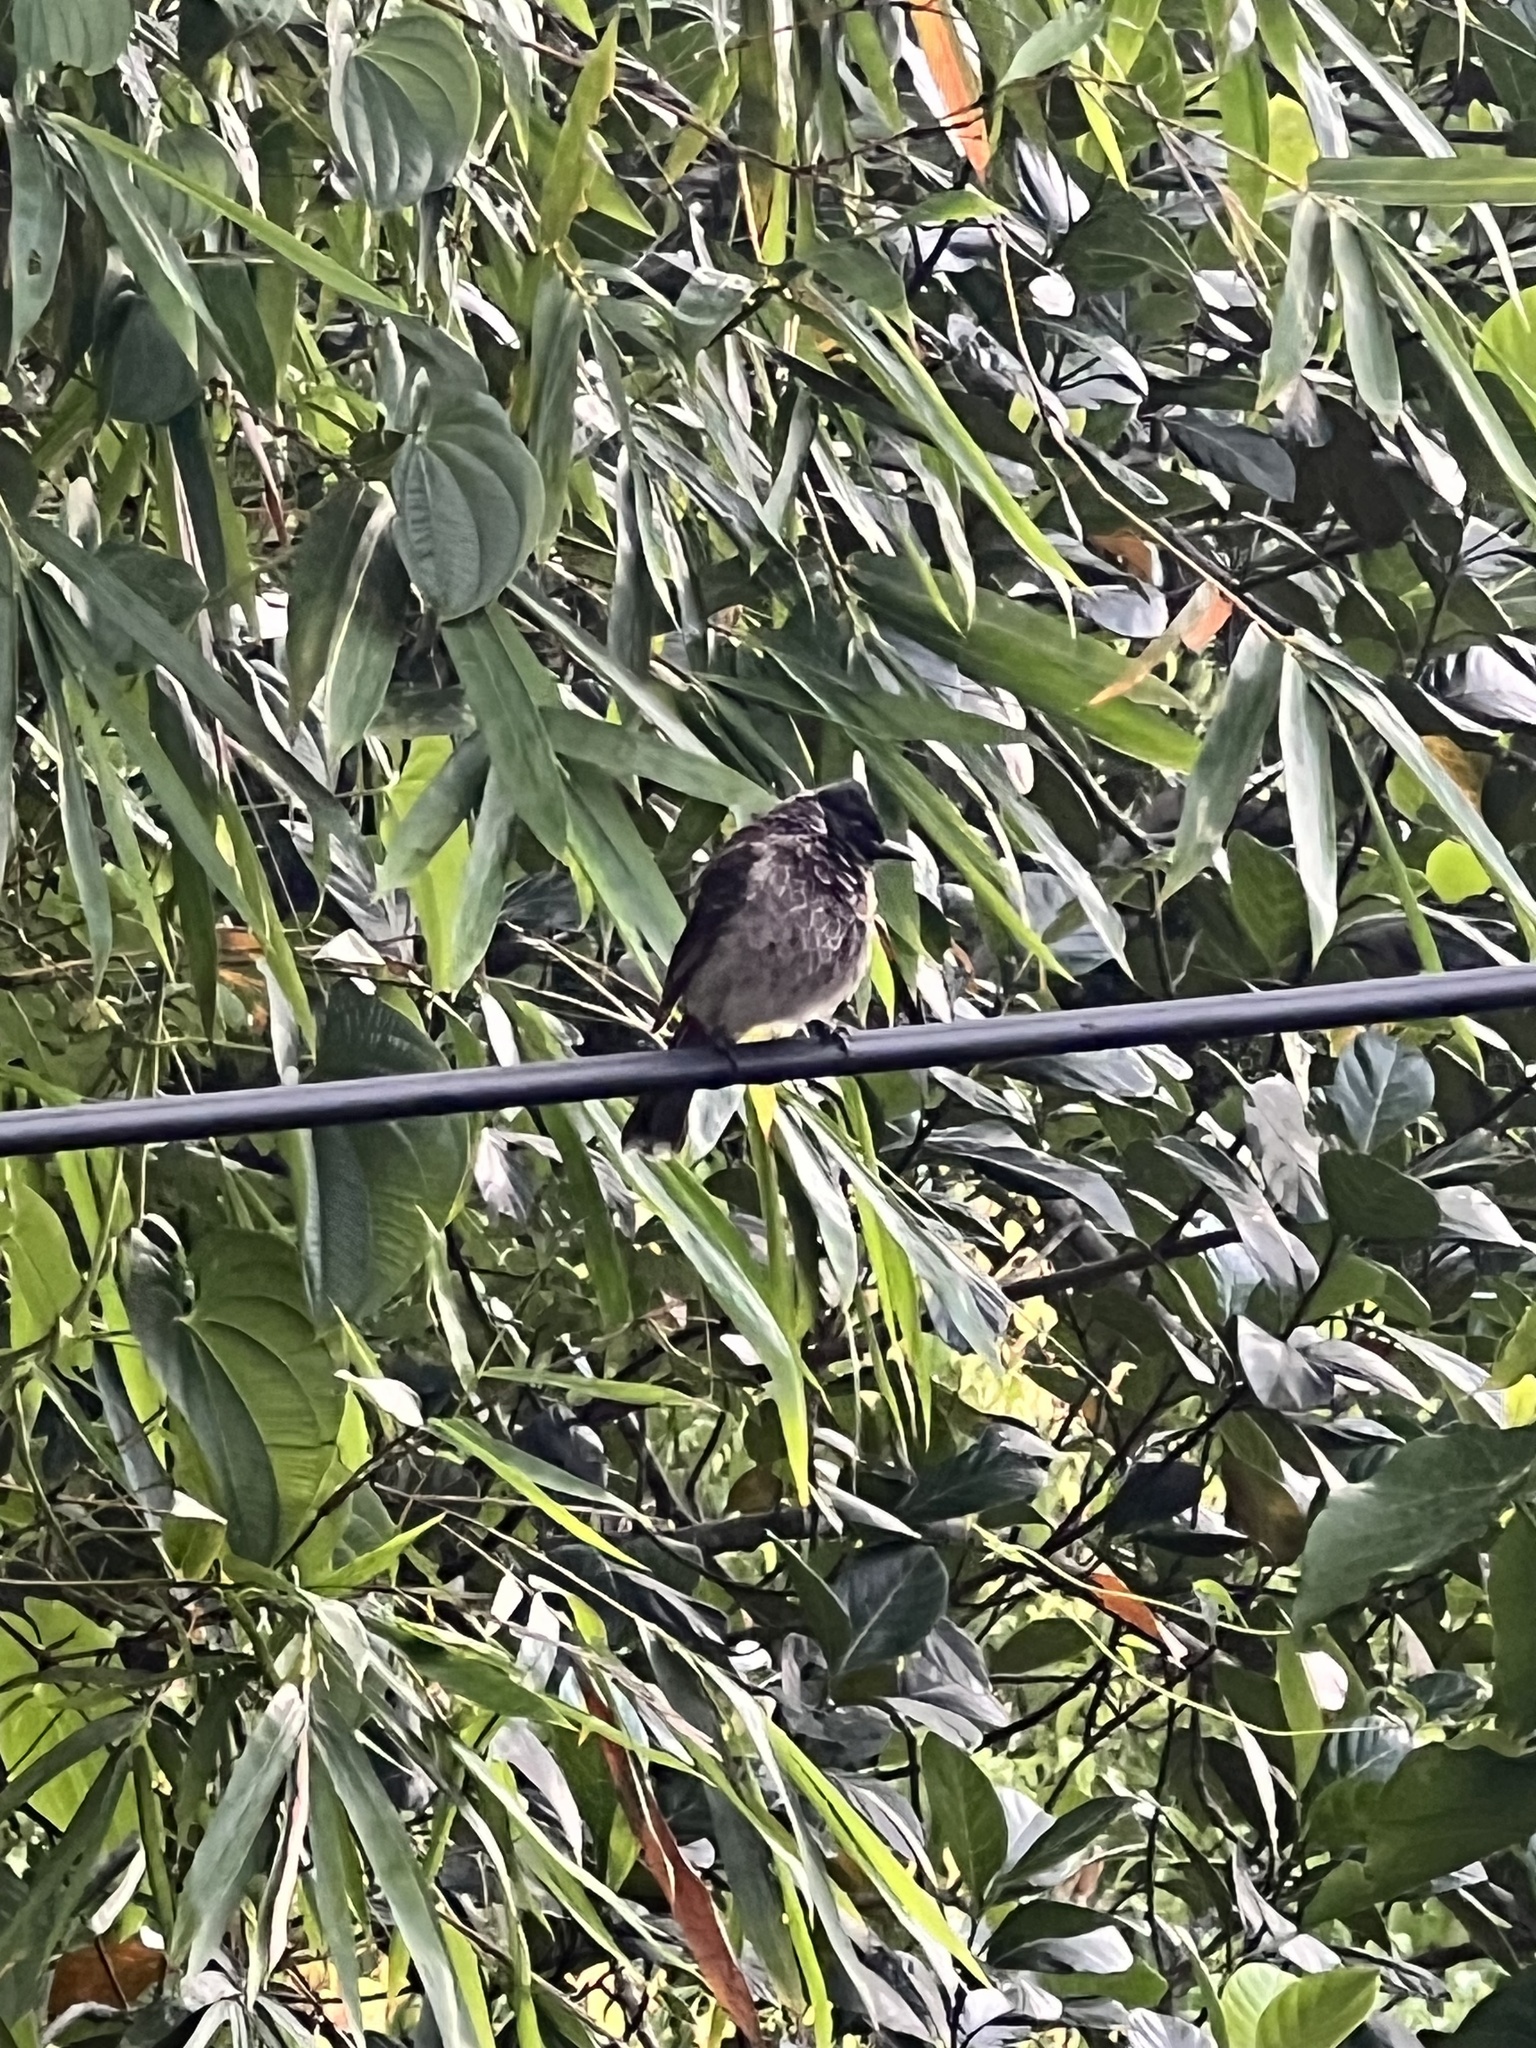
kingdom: Animalia
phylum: Chordata
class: Aves
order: Passeriformes
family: Pycnonotidae
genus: Pycnonotus
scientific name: Pycnonotus cafer
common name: Red-vented bulbul
